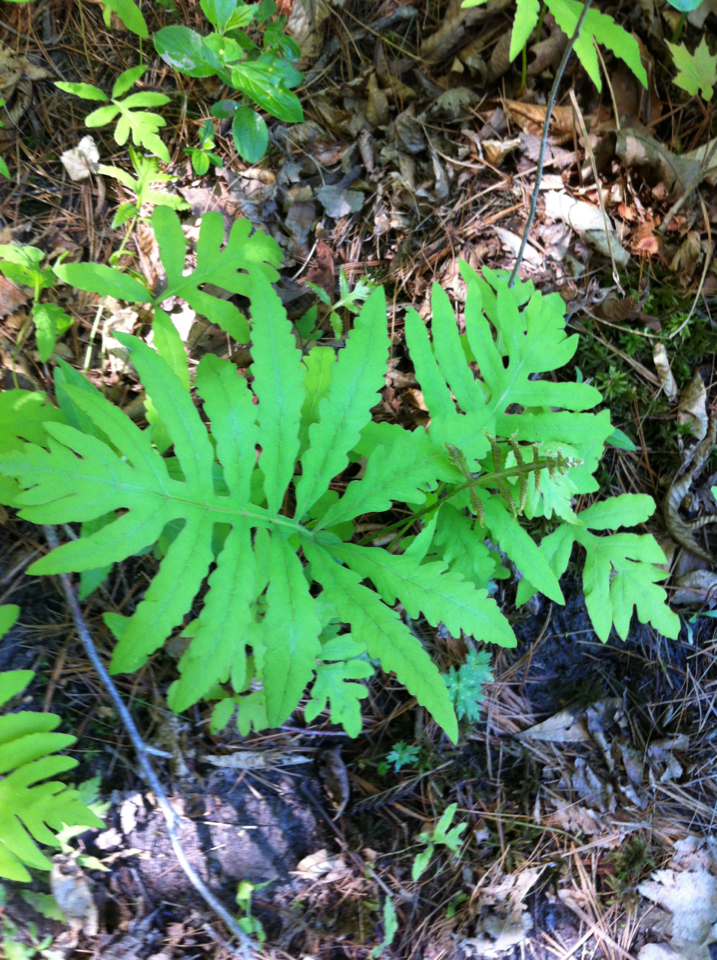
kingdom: Plantae
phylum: Tracheophyta
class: Polypodiopsida
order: Polypodiales
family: Onocleaceae
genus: Onoclea
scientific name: Onoclea sensibilis
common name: Sensitive fern
